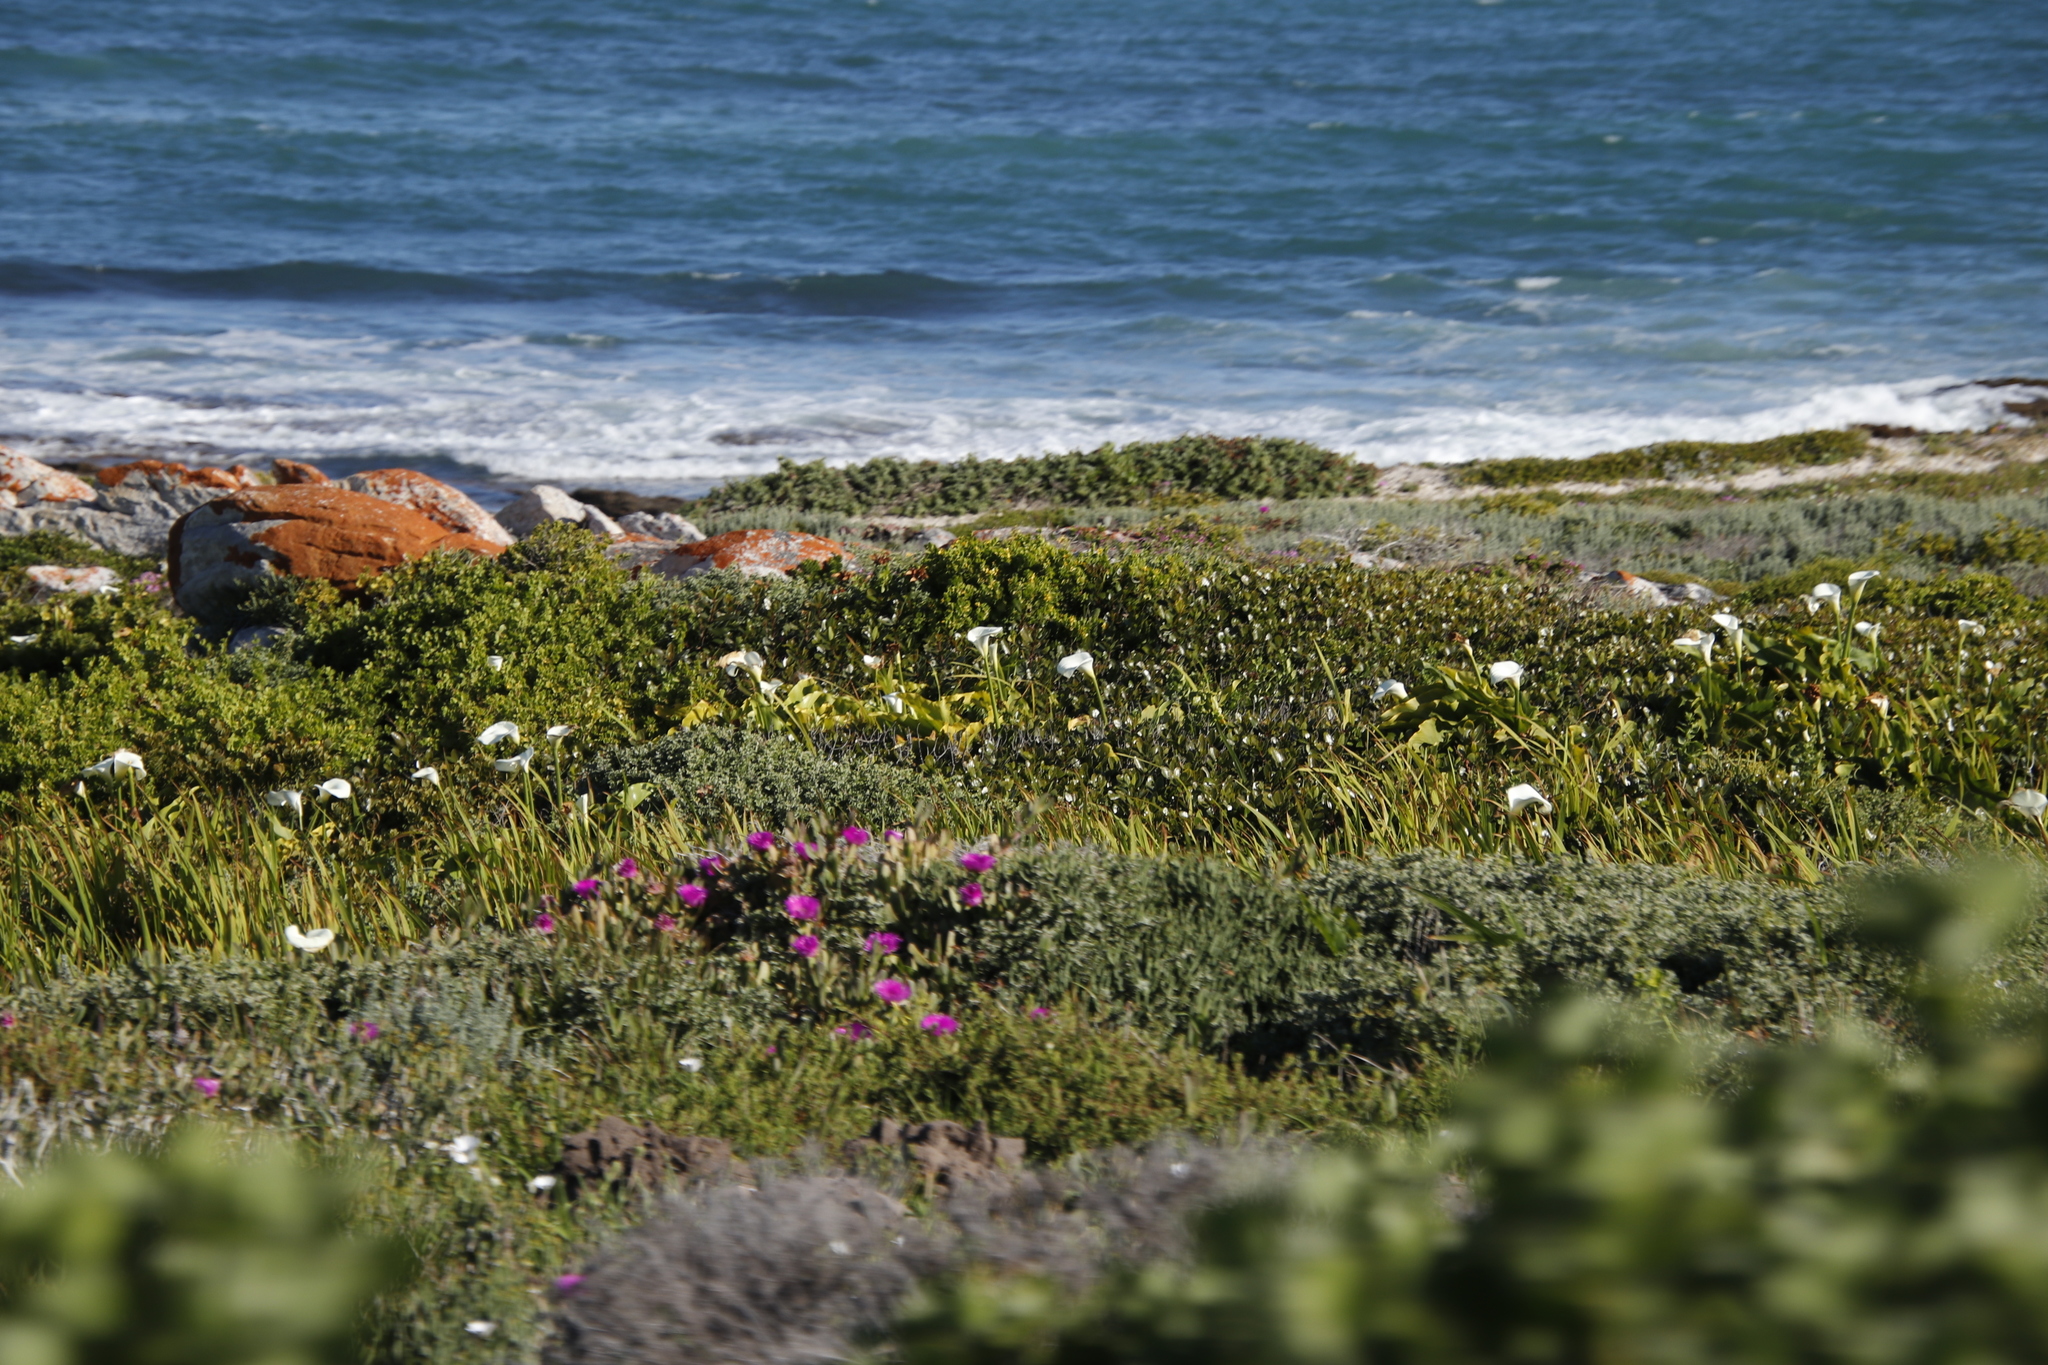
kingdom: Plantae
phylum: Tracheophyta
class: Liliopsida
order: Alismatales
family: Araceae
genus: Zantedeschia
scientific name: Zantedeschia aethiopica
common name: Altar-lily
